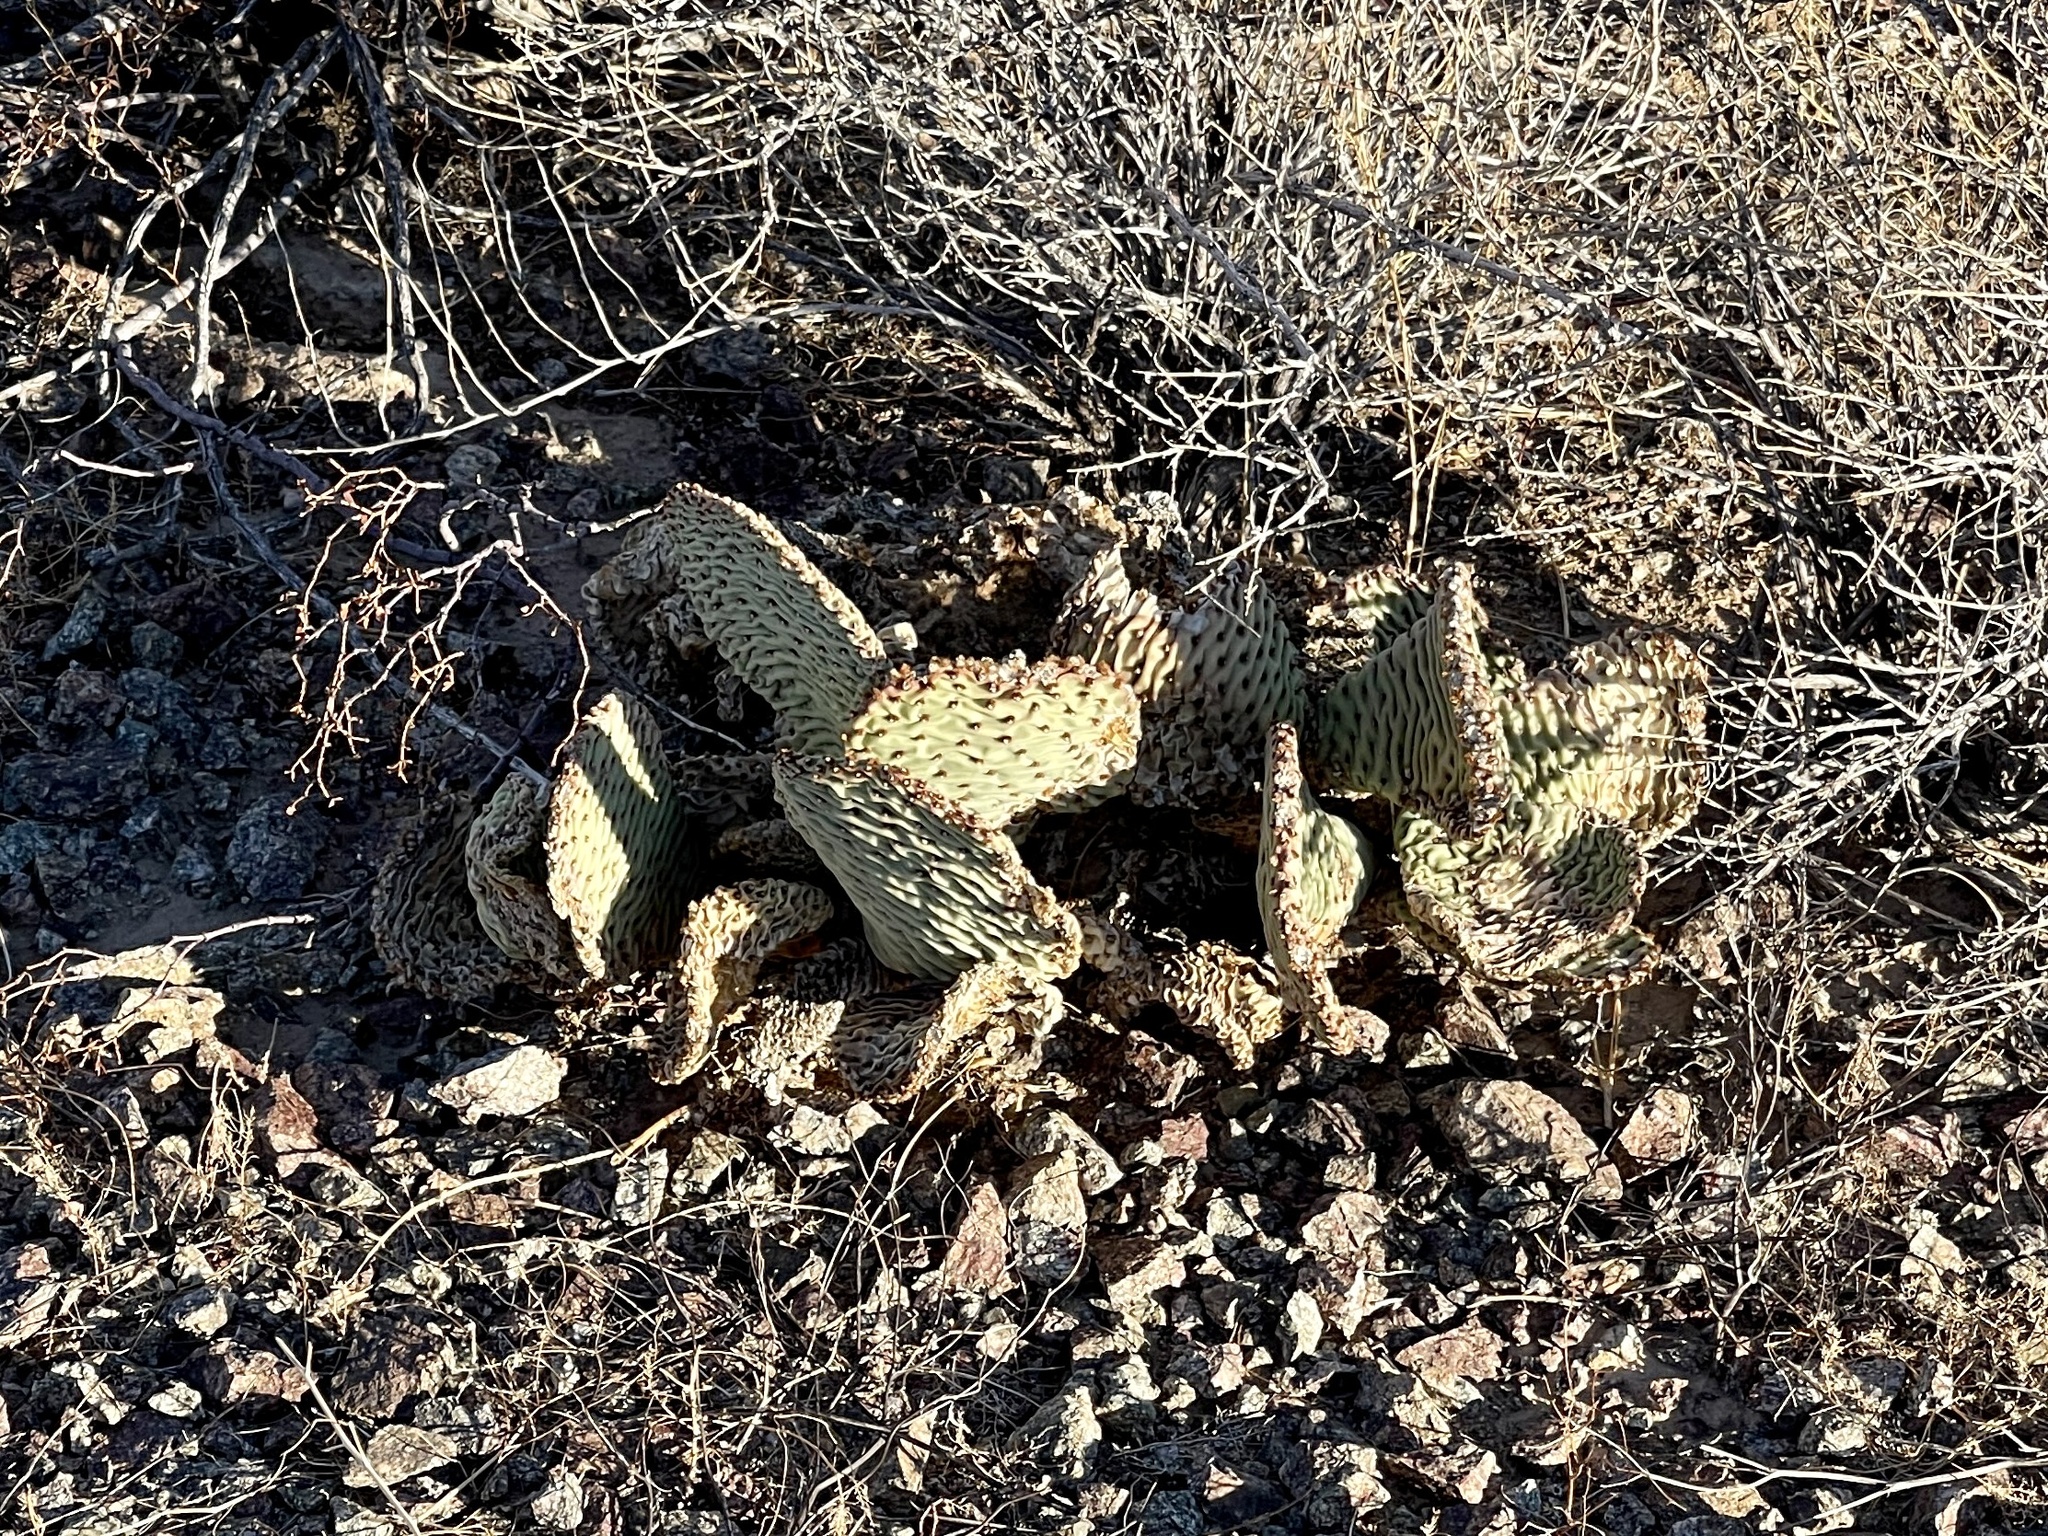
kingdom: Plantae
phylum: Tracheophyta
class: Magnoliopsida
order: Caryophyllales
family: Cactaceae
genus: Opuntia
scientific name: Opuntia basilaris
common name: Beavertail prickly-pear
